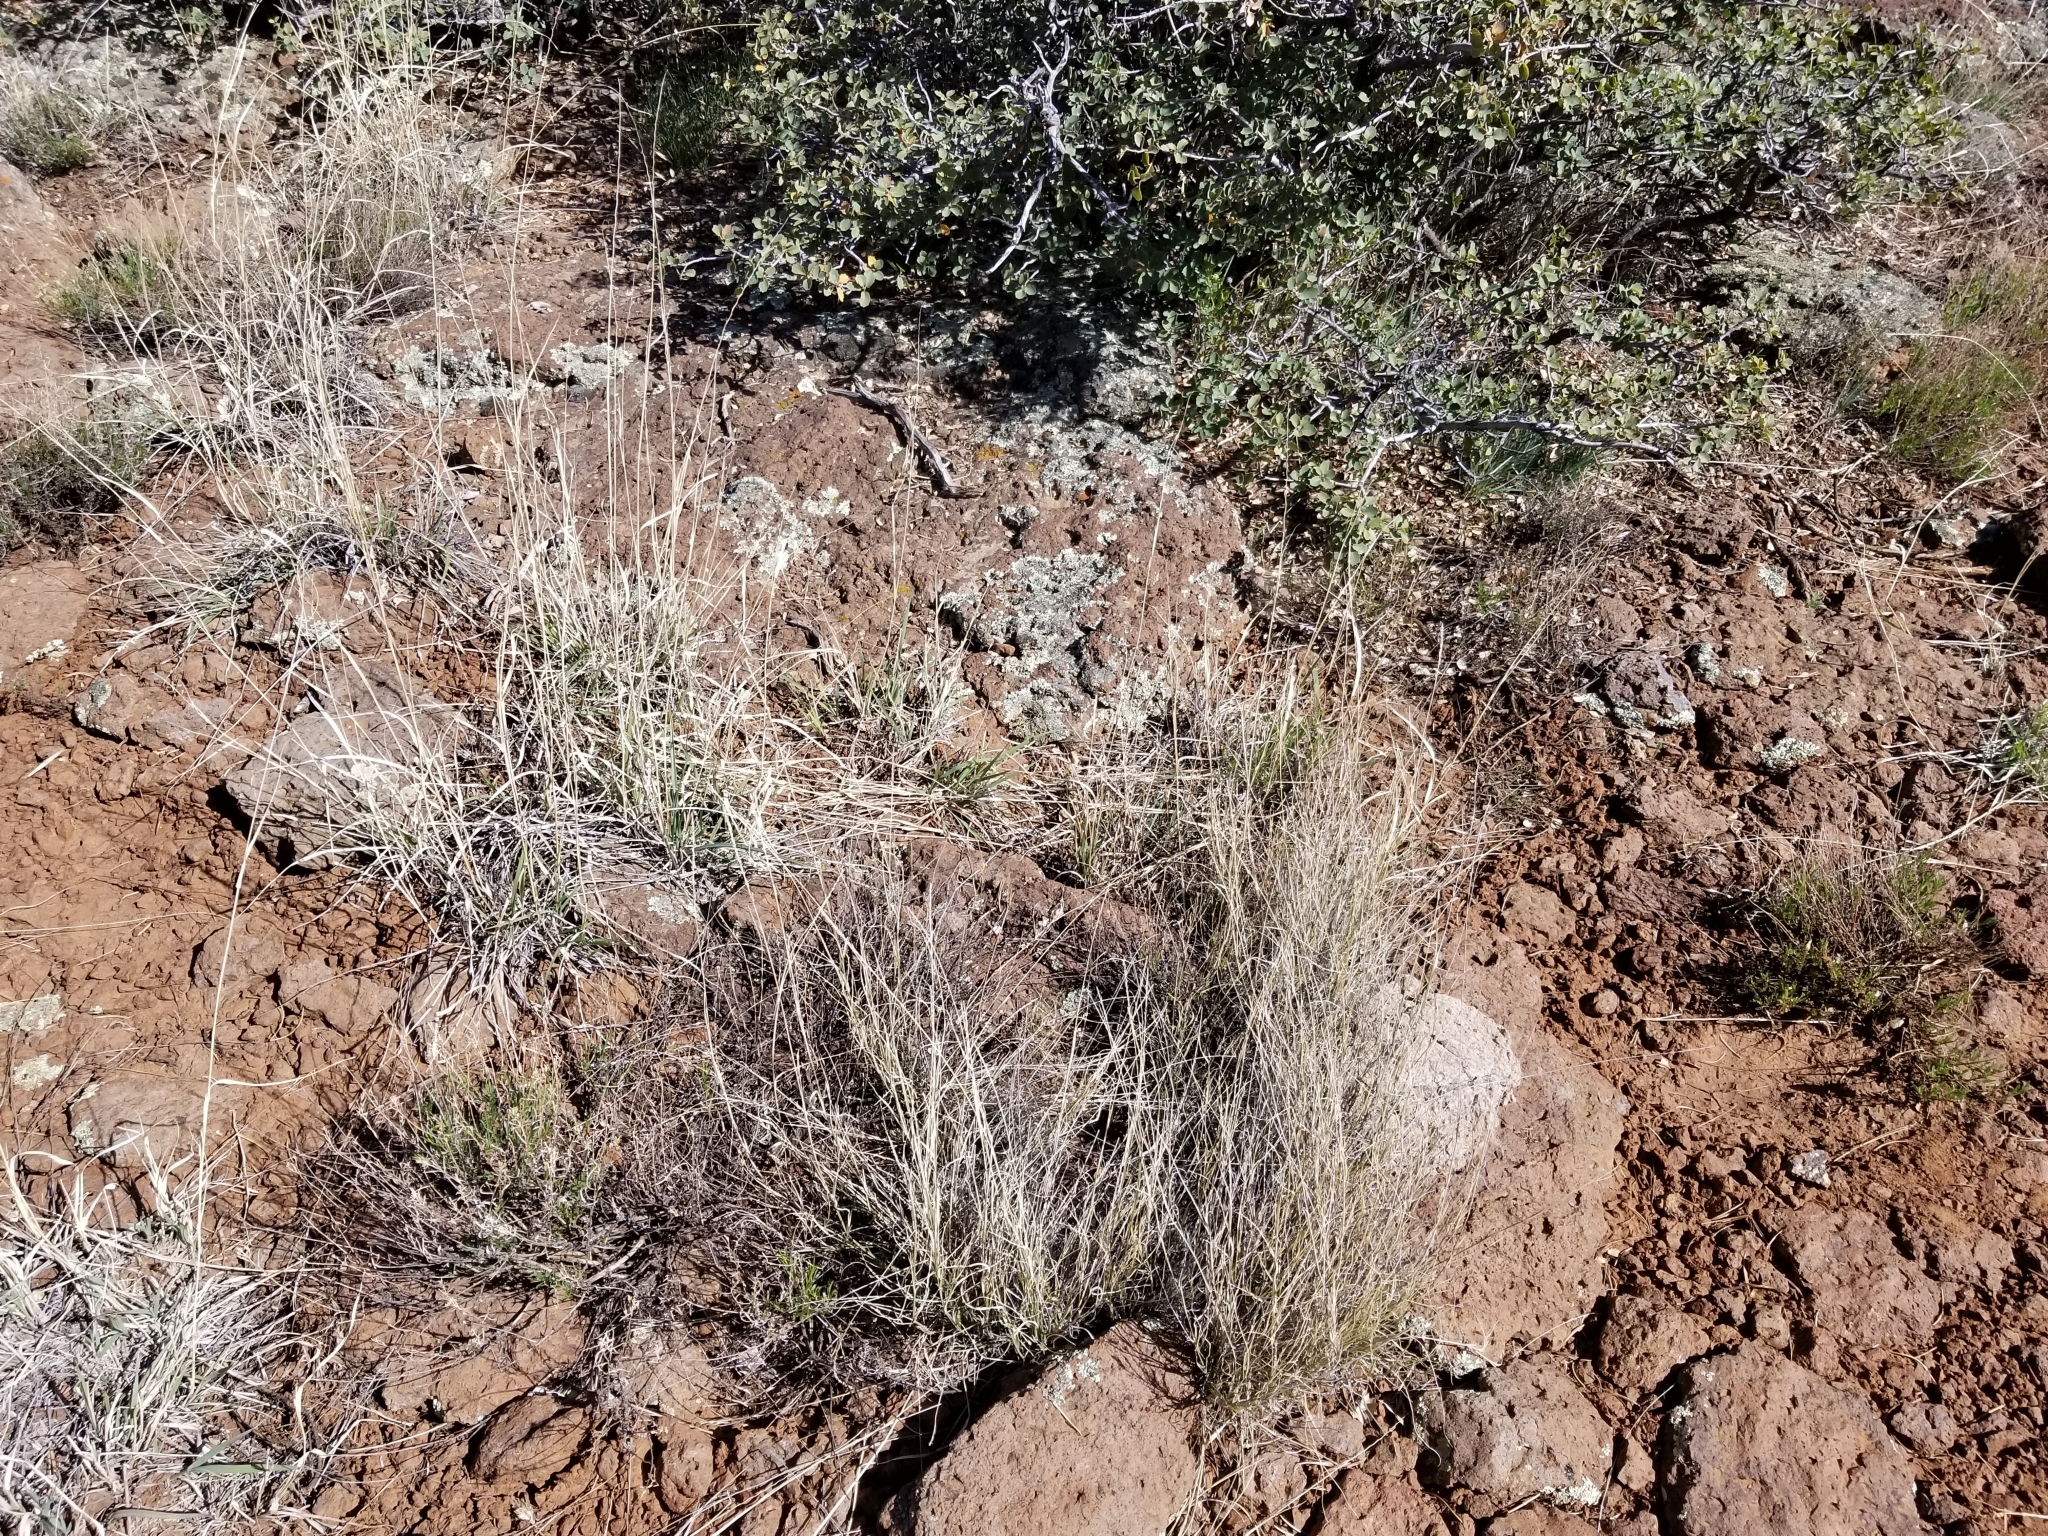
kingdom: Plantae
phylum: Tracheophyta
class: Liliopsida
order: Poales
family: Poaceae
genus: Bouteloua
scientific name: Bouteloua curtipendula
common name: Side-oats grama
